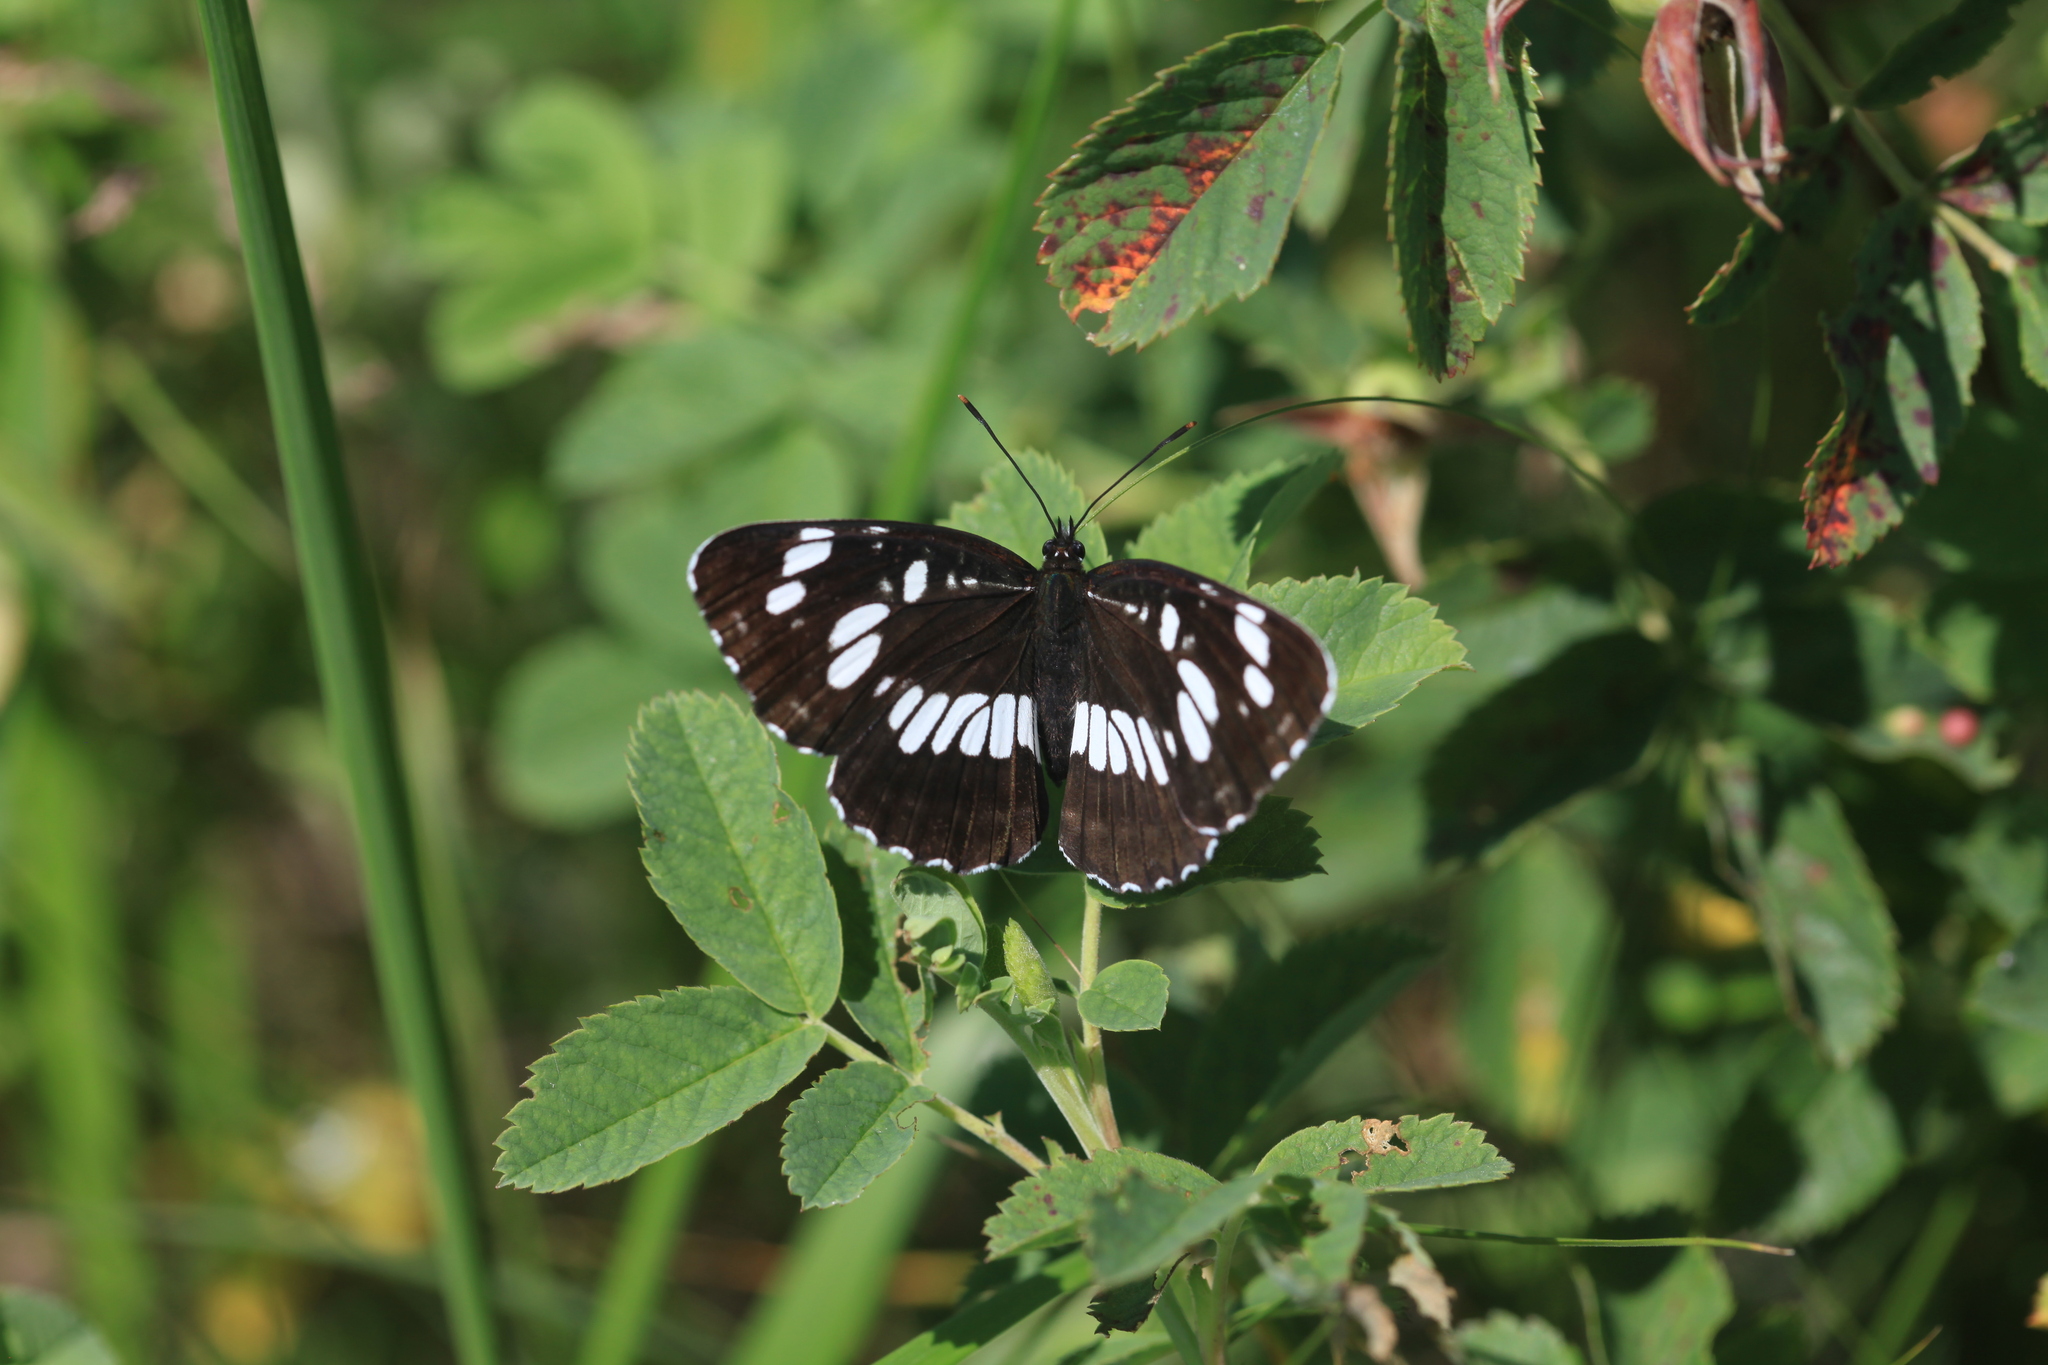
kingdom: Animalia
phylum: Arthropoda
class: Insecta
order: Lepidoptera
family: Nymphalidae
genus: Neptis
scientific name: Neptis rivularis
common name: Hungarian glider
